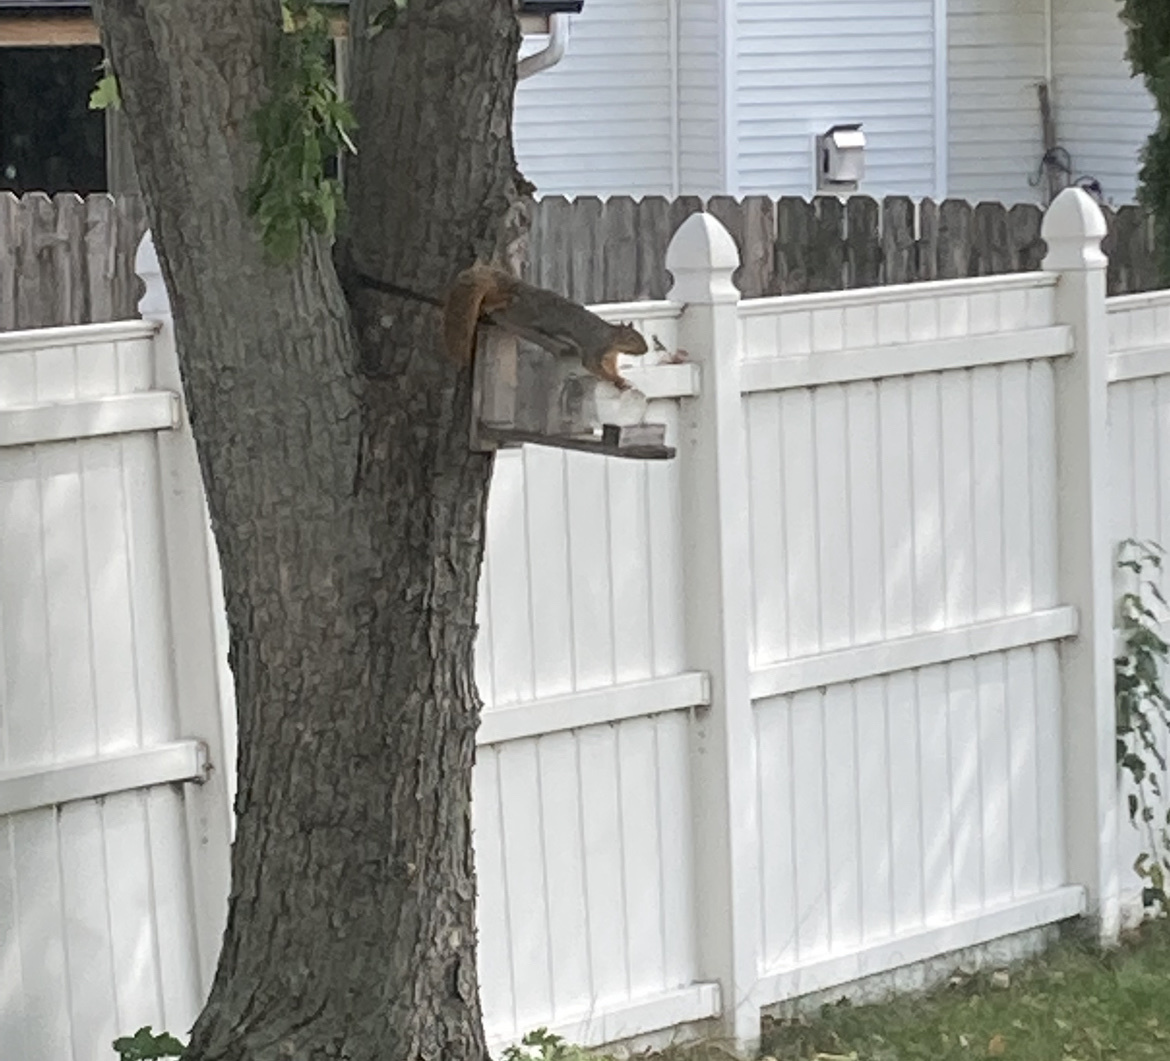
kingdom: Animalia
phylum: Chordata
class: Mammalia
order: Rodentia
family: Sciuridae
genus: Sciurus
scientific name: Sciurus niger
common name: Fox squirrel
